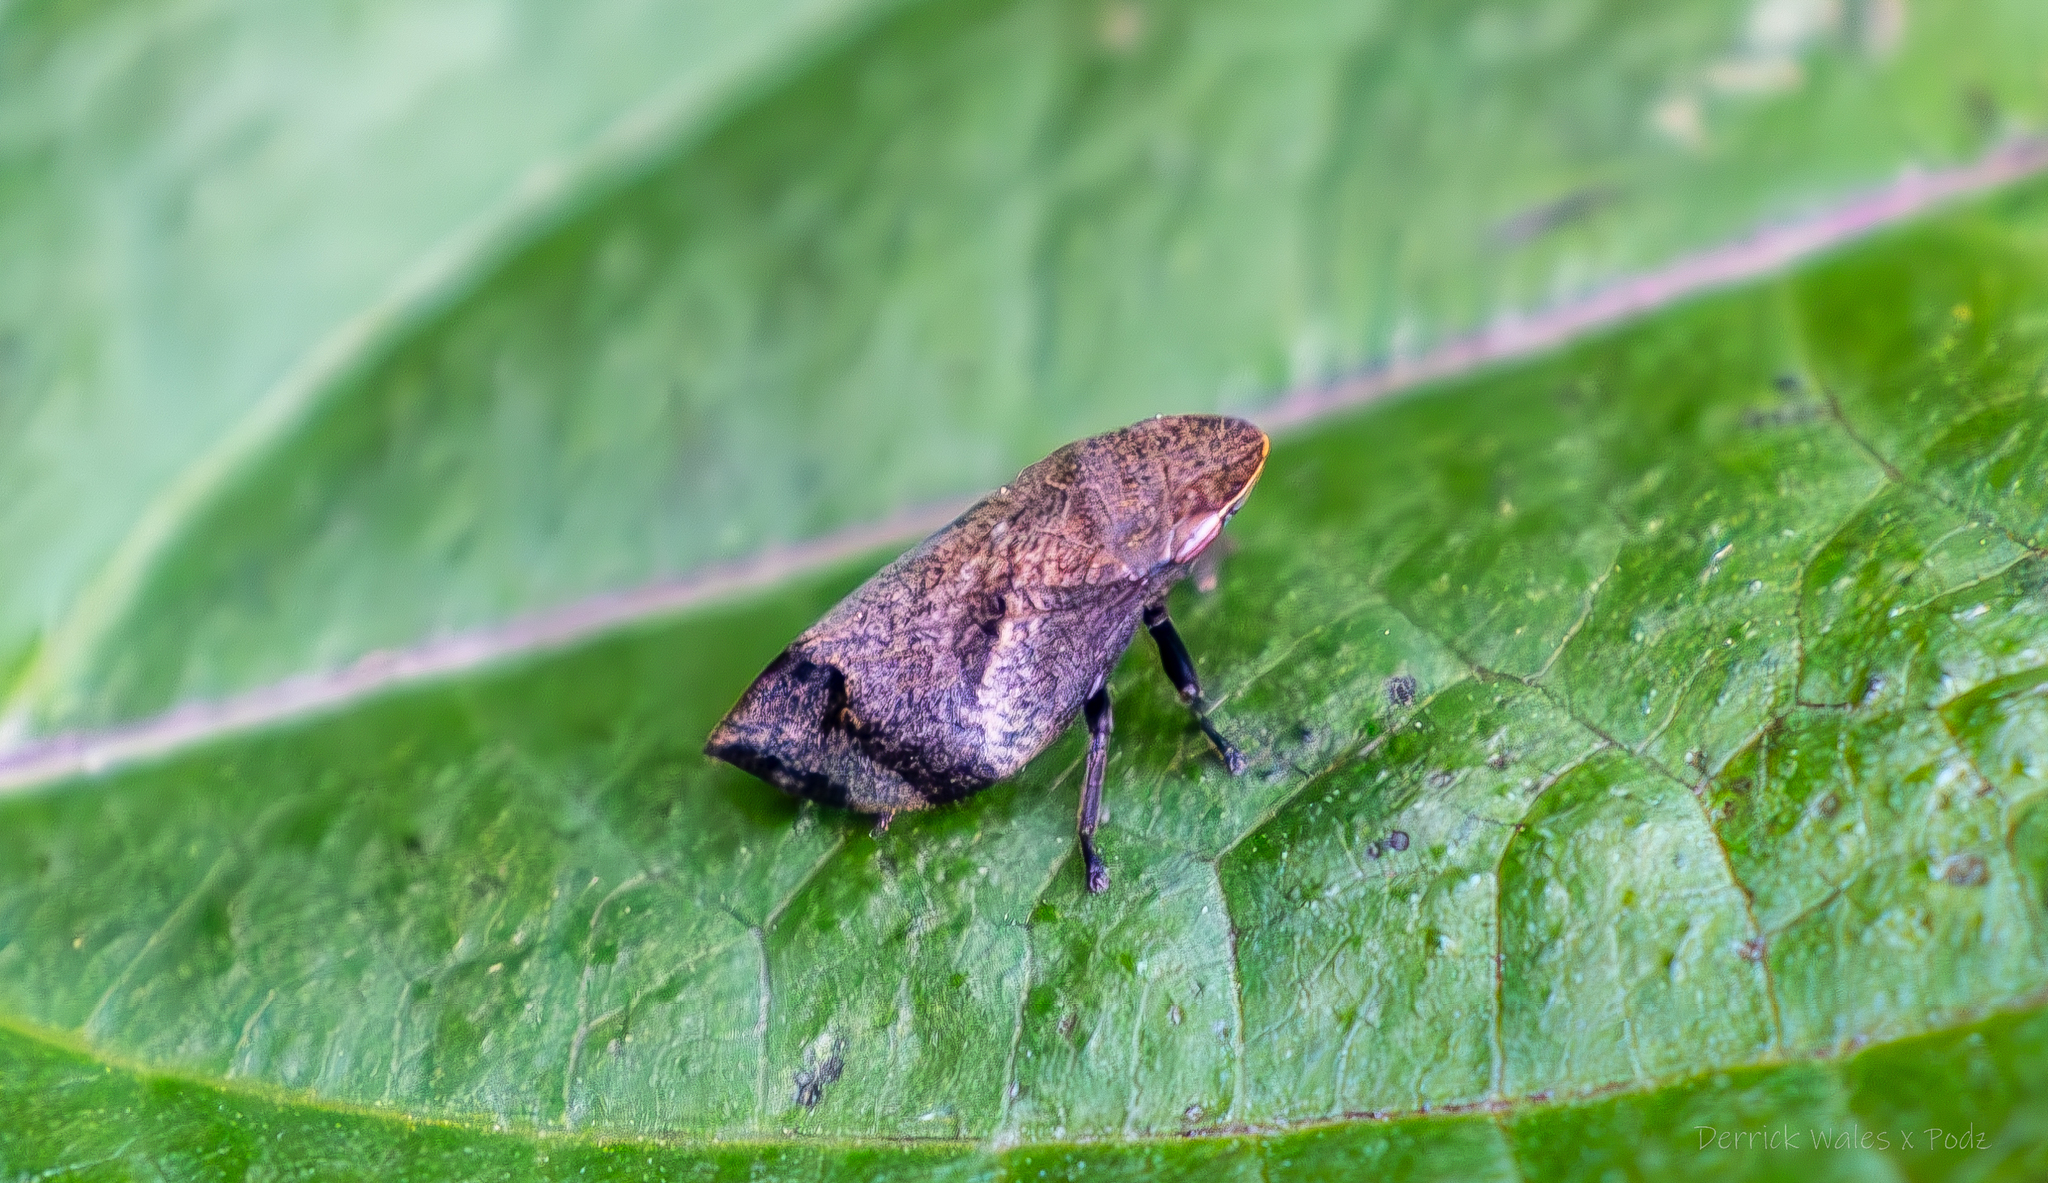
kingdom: Animalia
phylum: Arthropoda
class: Insecta
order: Hemiptera
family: Aphrophoridae
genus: Lepyronia
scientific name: Lepyronia quadrangularis
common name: Diamond-backed spittlebug
